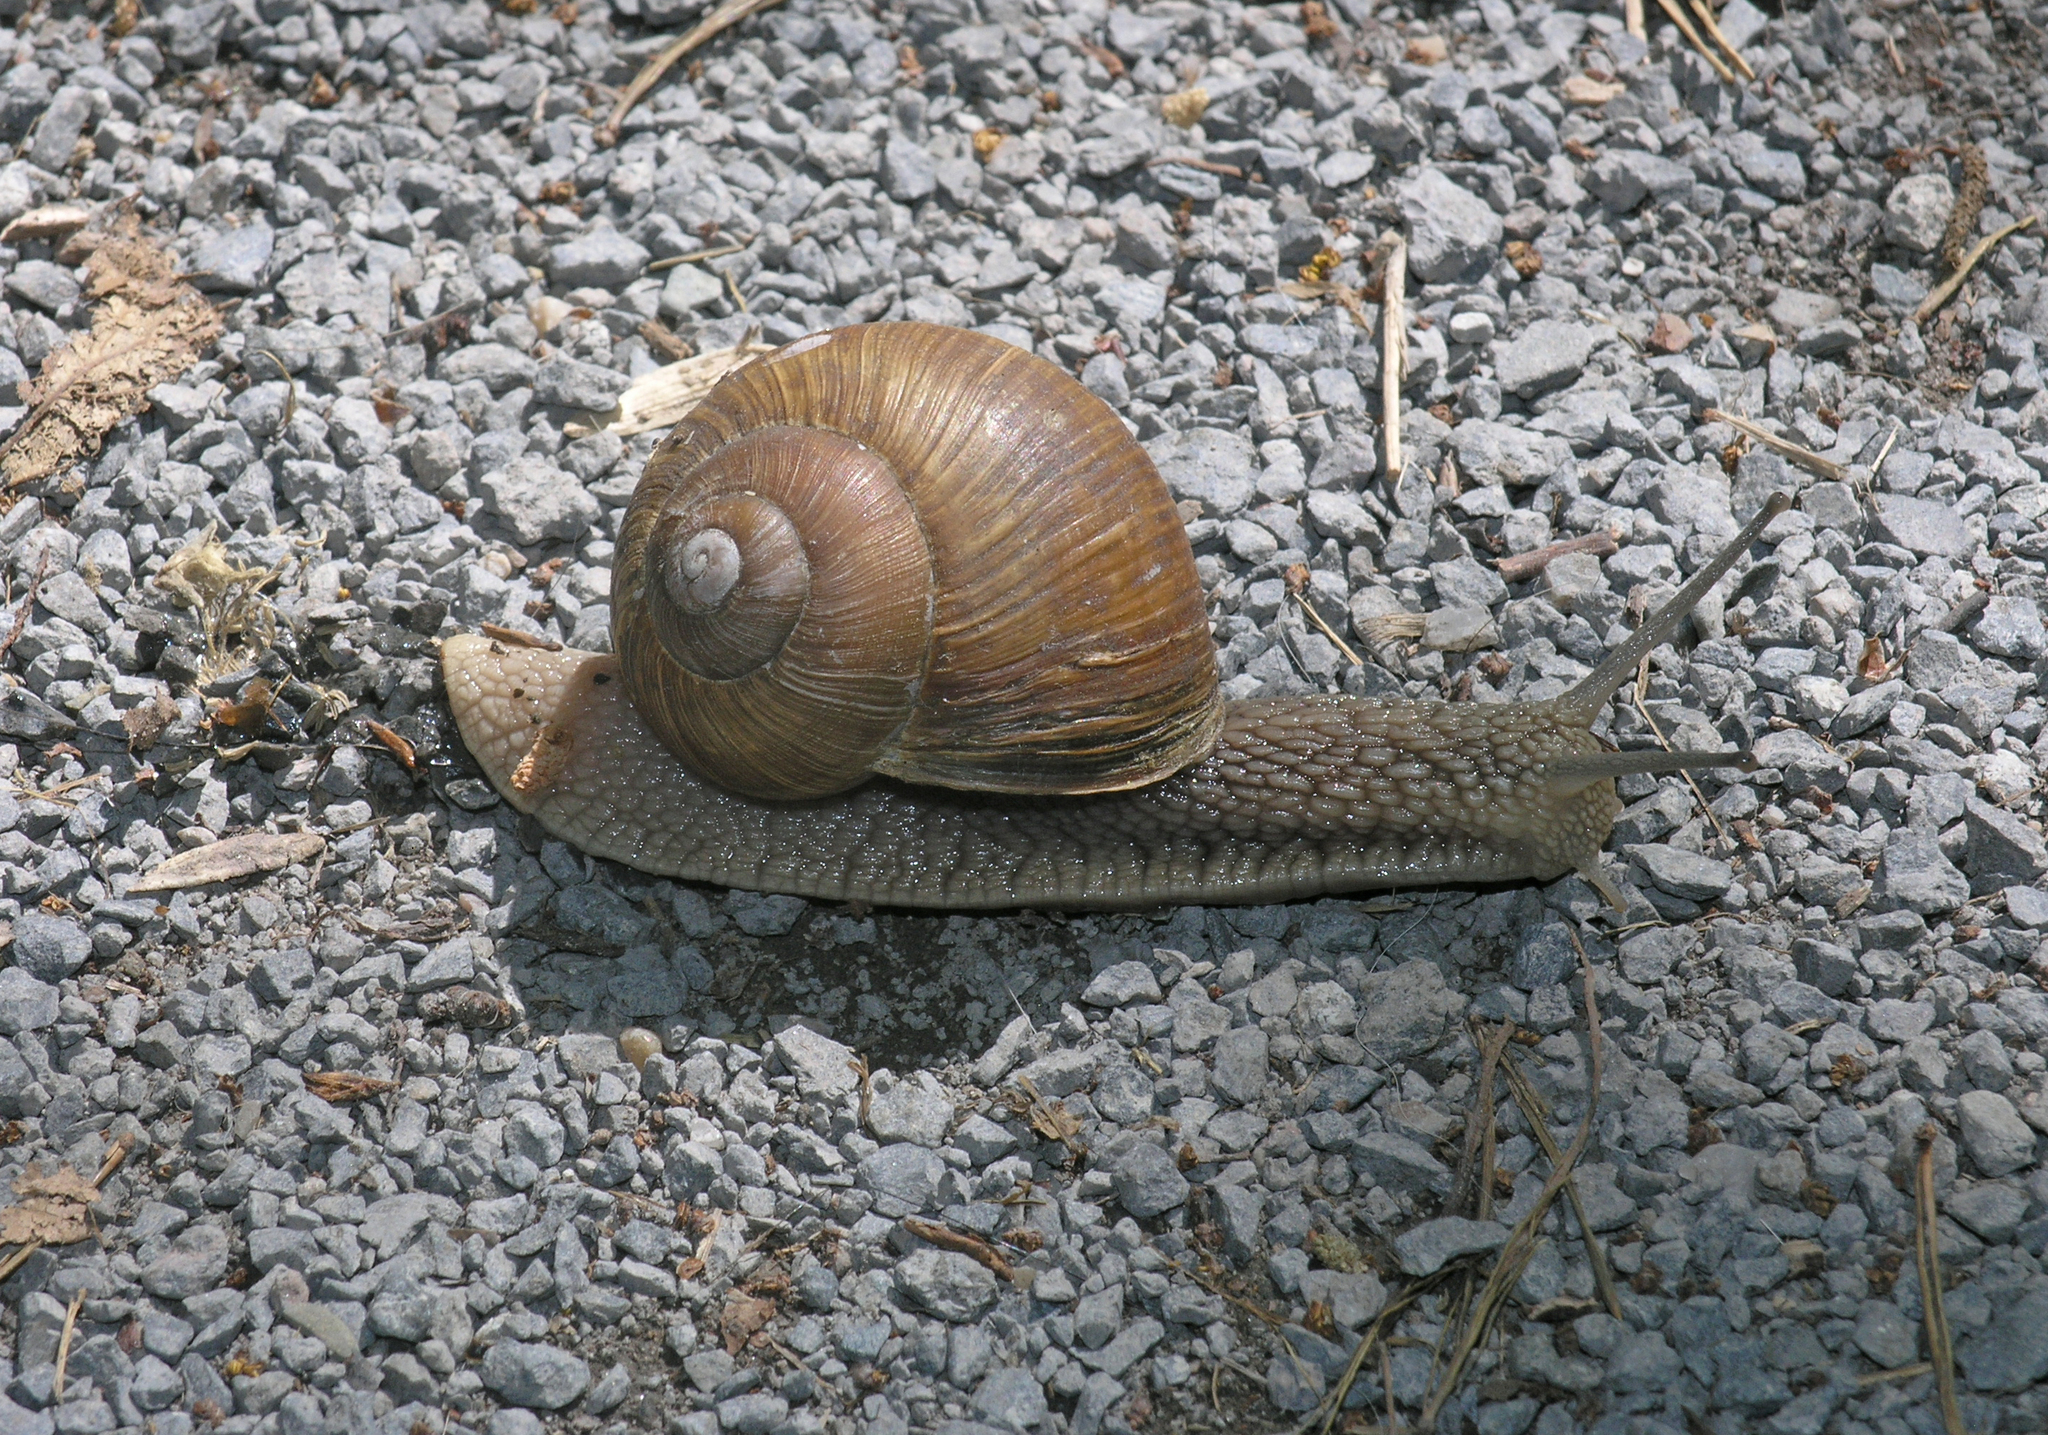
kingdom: Animalia
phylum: Mollusca
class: Gastropoda
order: Stylommatophora
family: Helicidae
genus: Helix
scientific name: Helix pomatia
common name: Roman snail
